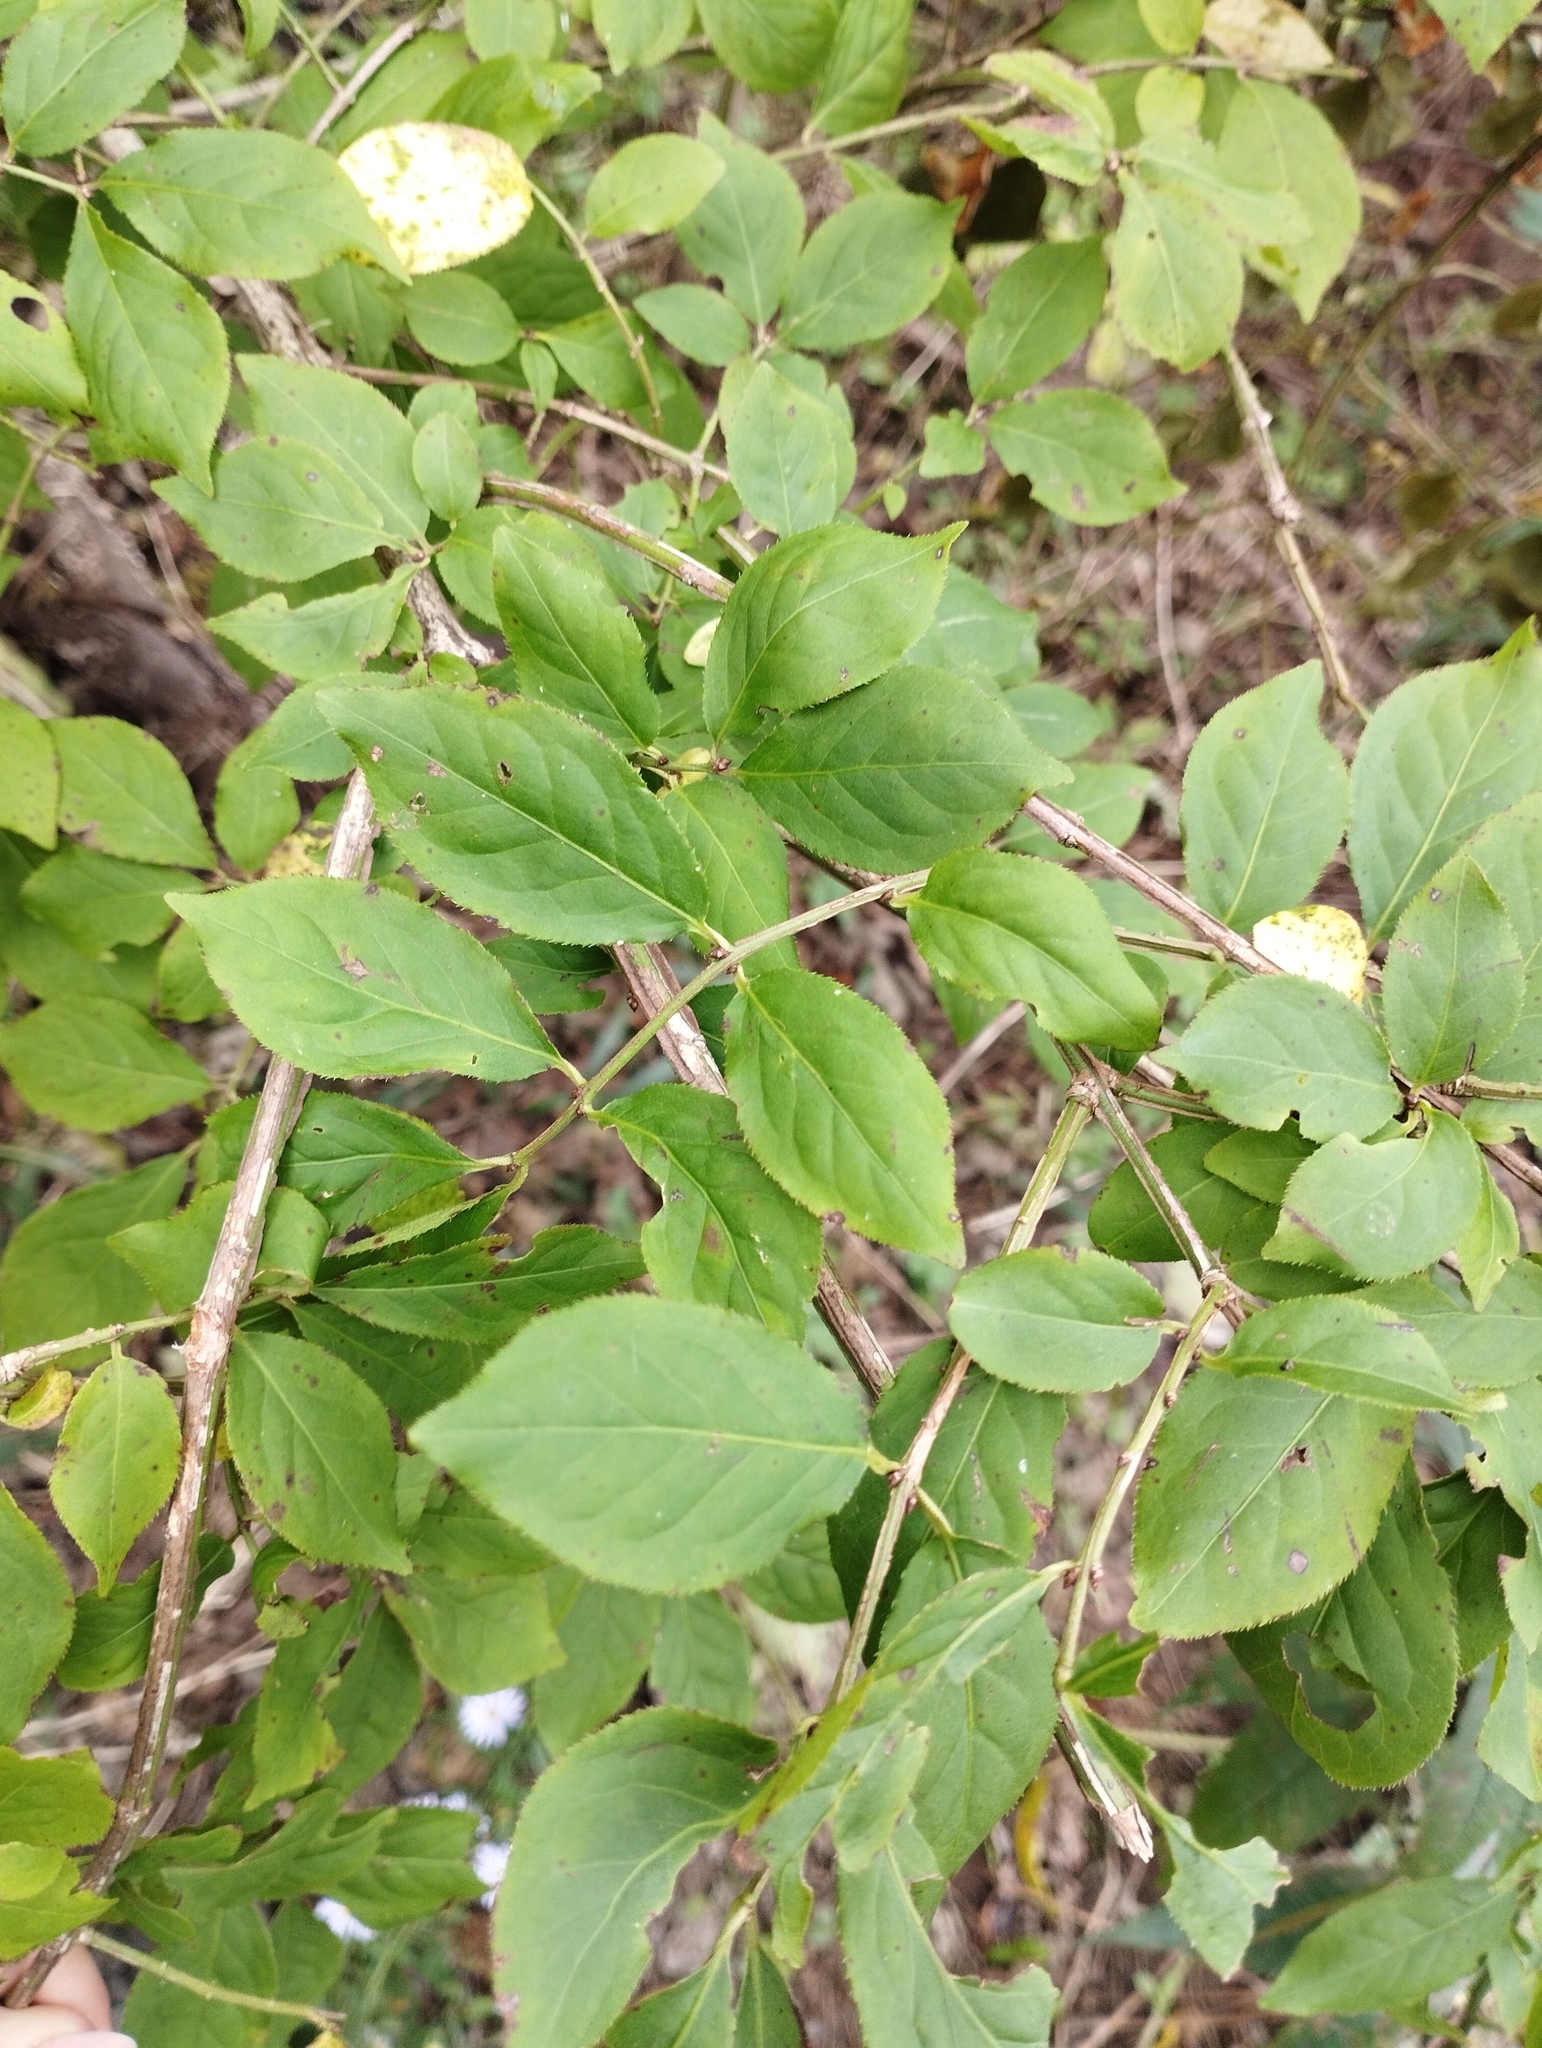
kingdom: Plantae
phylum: Tracheophyta
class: Magnoliopsida
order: Celastrales
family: Celastraceae
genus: Euonymus
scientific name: Euonymus alatus
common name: Winged euonymus
